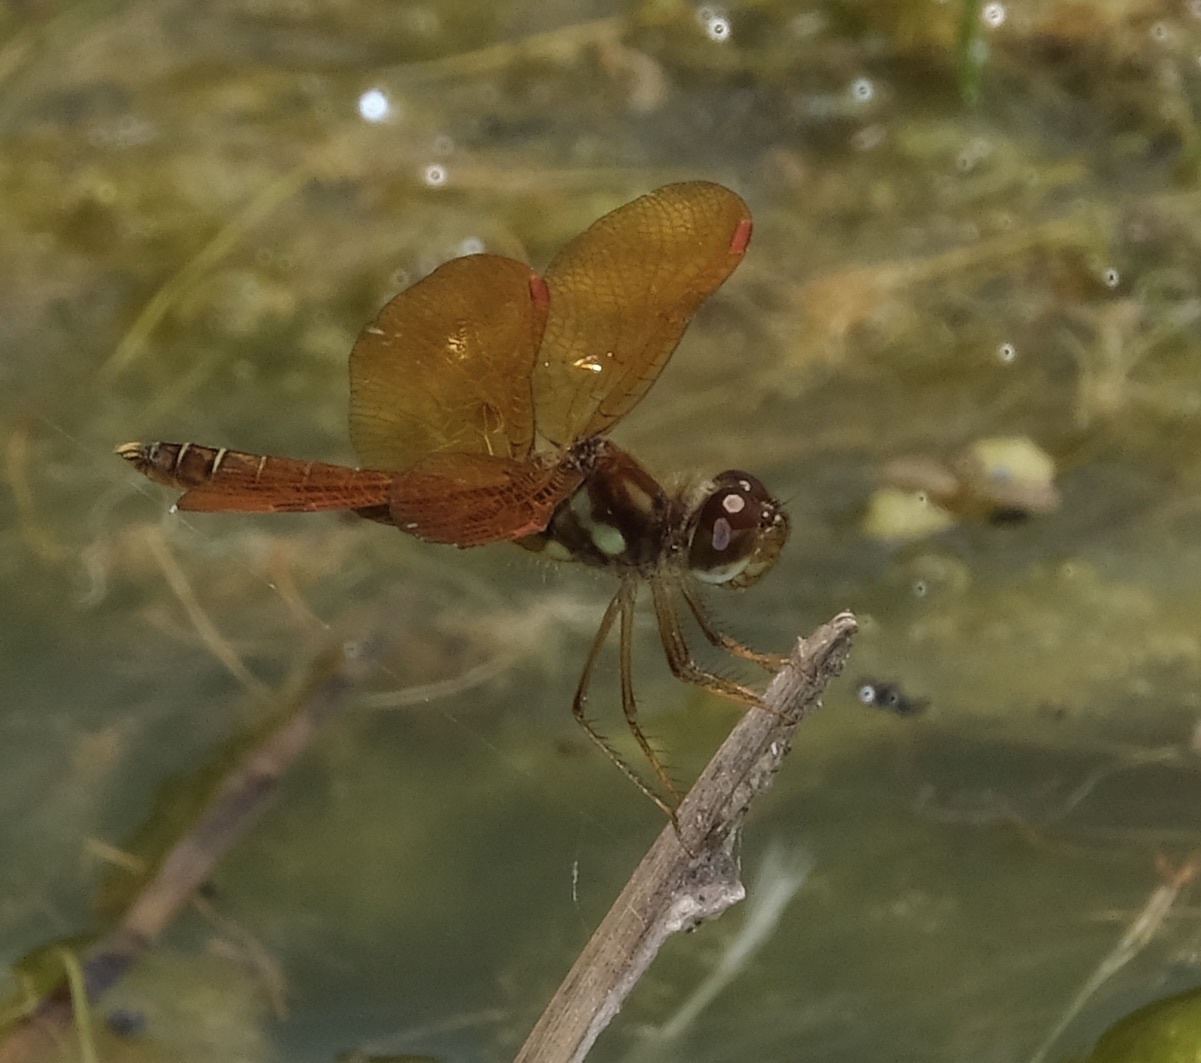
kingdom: Animalia
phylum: Arthropoda
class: Insecta
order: Odonata
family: Libellulidae
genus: Perithemis
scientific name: Perithemis tenera
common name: Eastern amberwing
